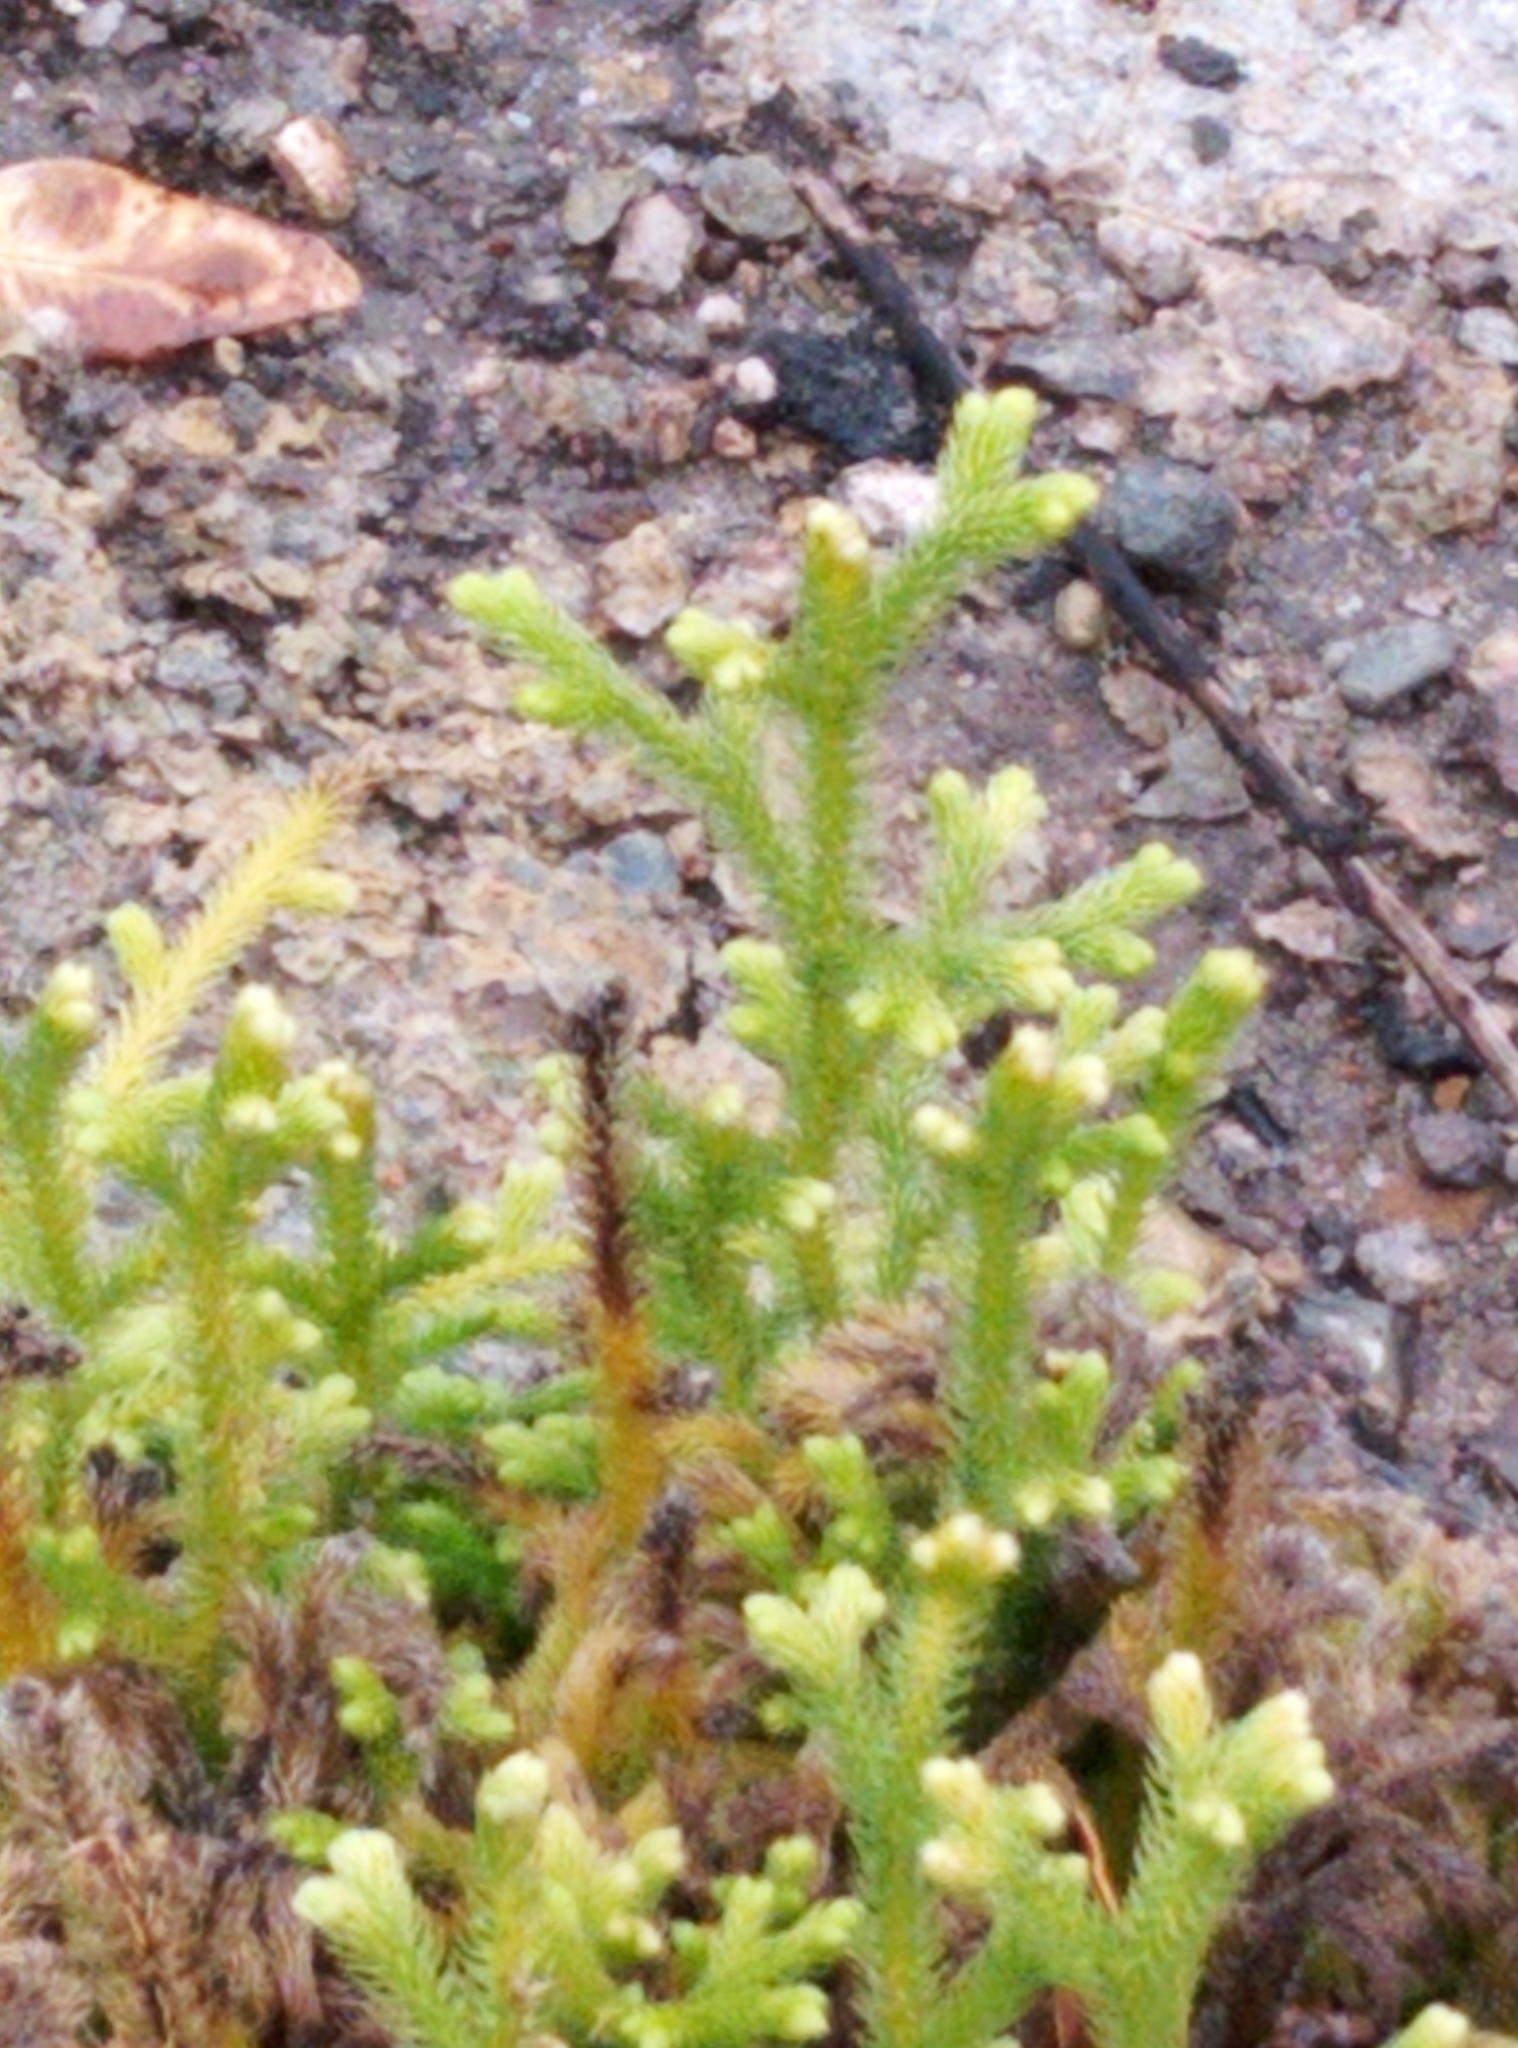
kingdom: Plantae
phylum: Tracheophyta
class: Lycopodiopsida
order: Lycopodiales
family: Lycopodiaceae
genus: Palhinhaea
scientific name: Palhinhaea cernua
